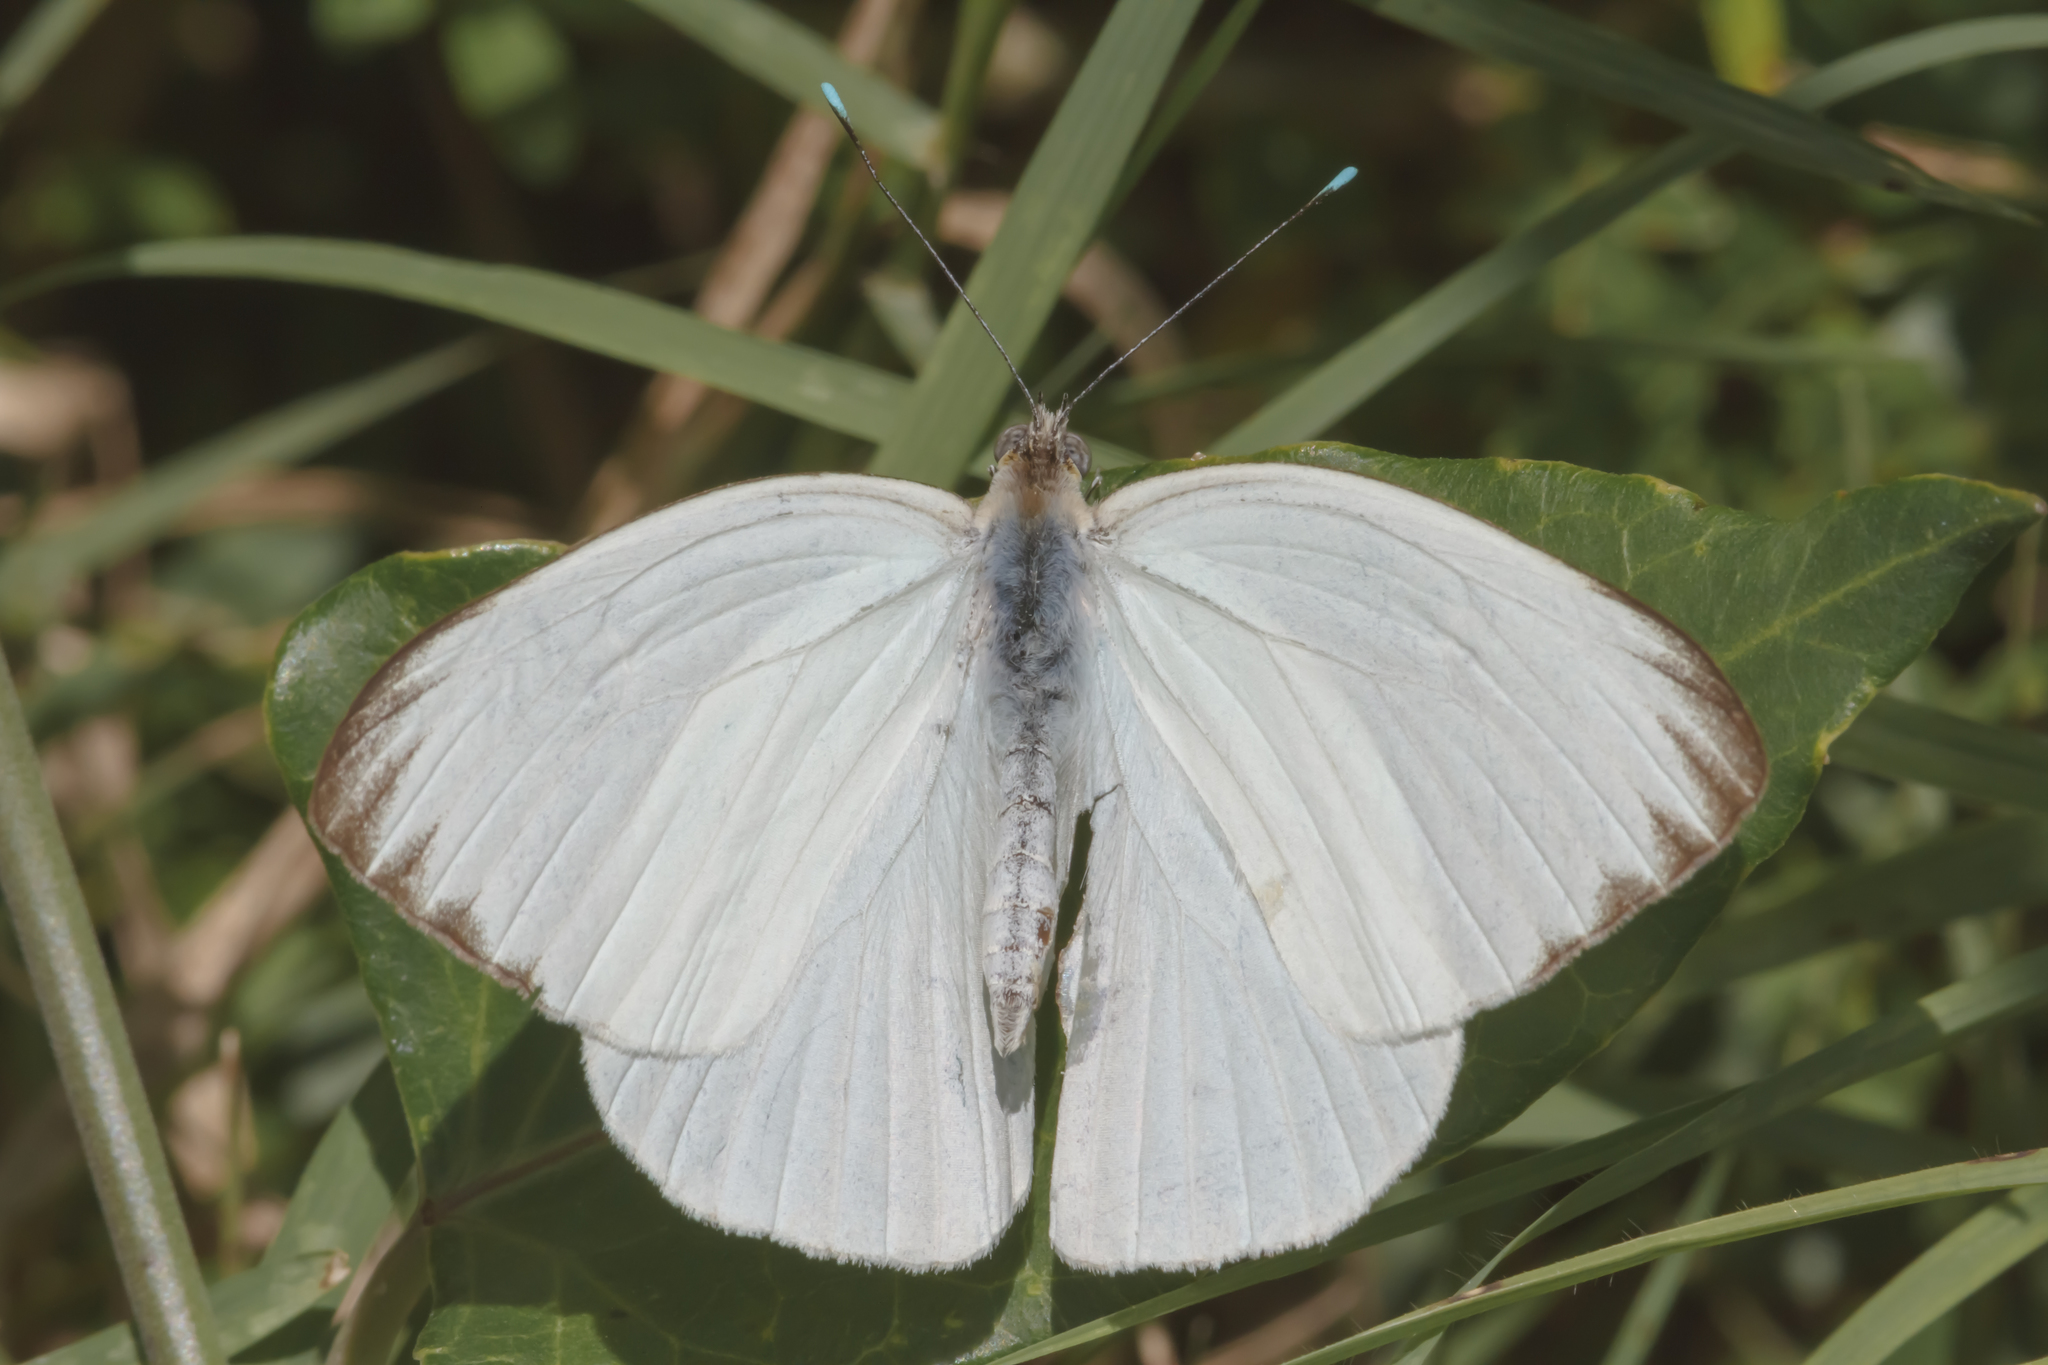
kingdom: Animalia
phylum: Arthropoda
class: Insecta
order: Lepidoptera
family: Pieridae
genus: Ascia
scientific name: Ascia monuste
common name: Great southern white
